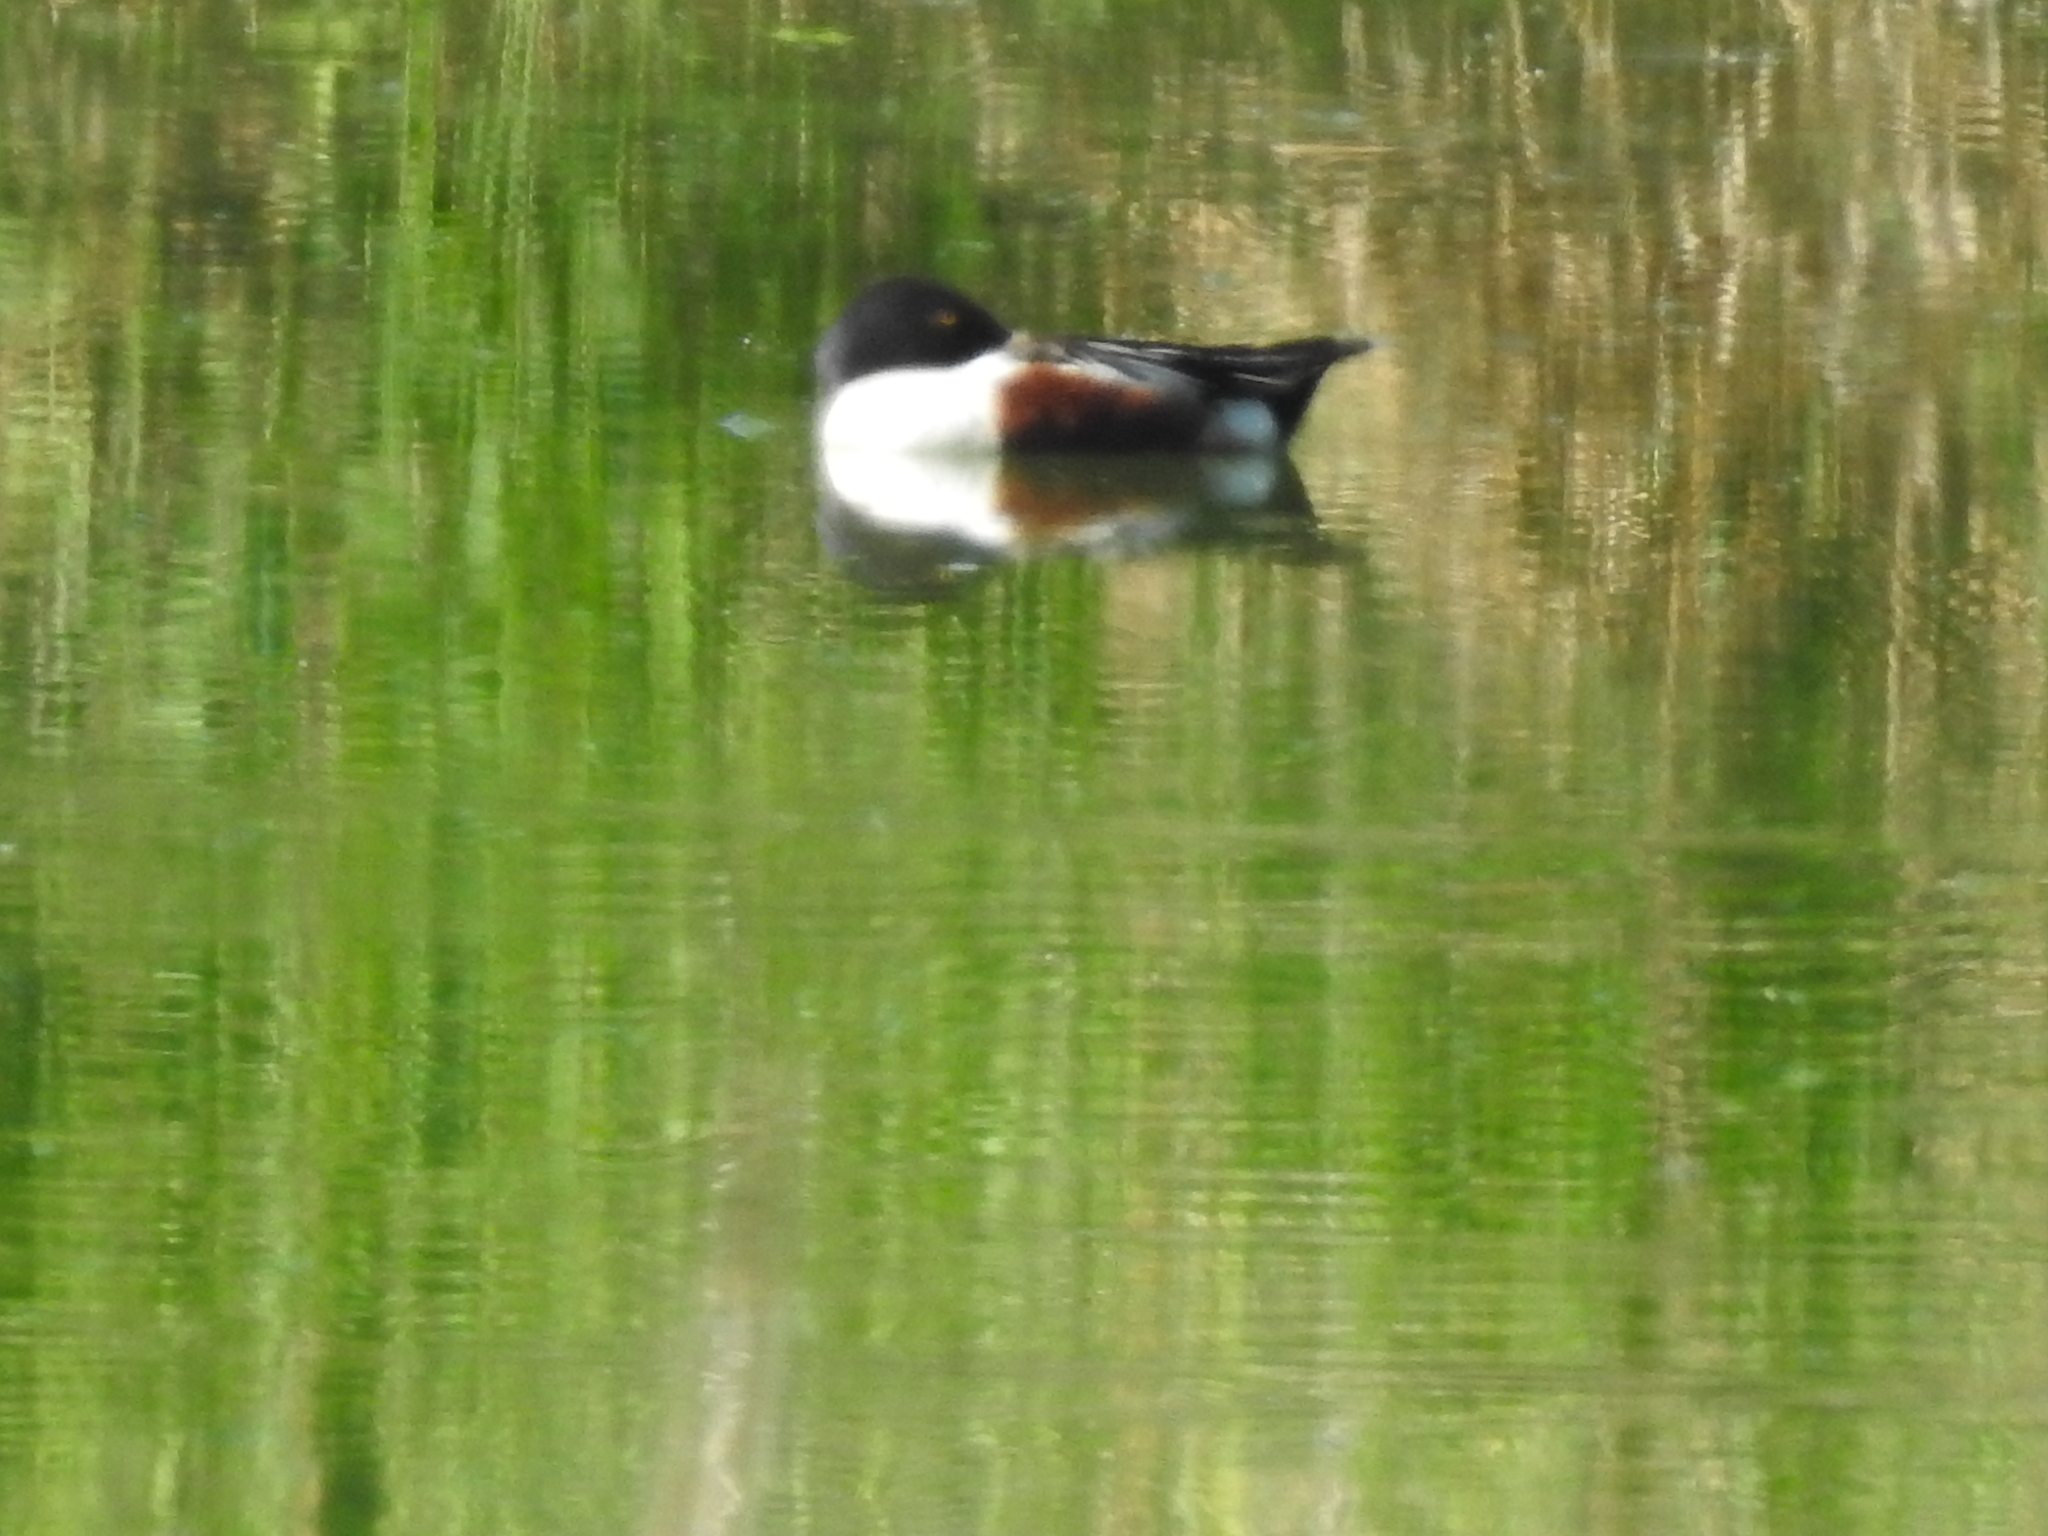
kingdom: Animalia
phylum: Chordata
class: Aves
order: Anseriformes
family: Anatidae
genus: Spatula
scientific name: Spatula clypeata
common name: Northern shoveler
